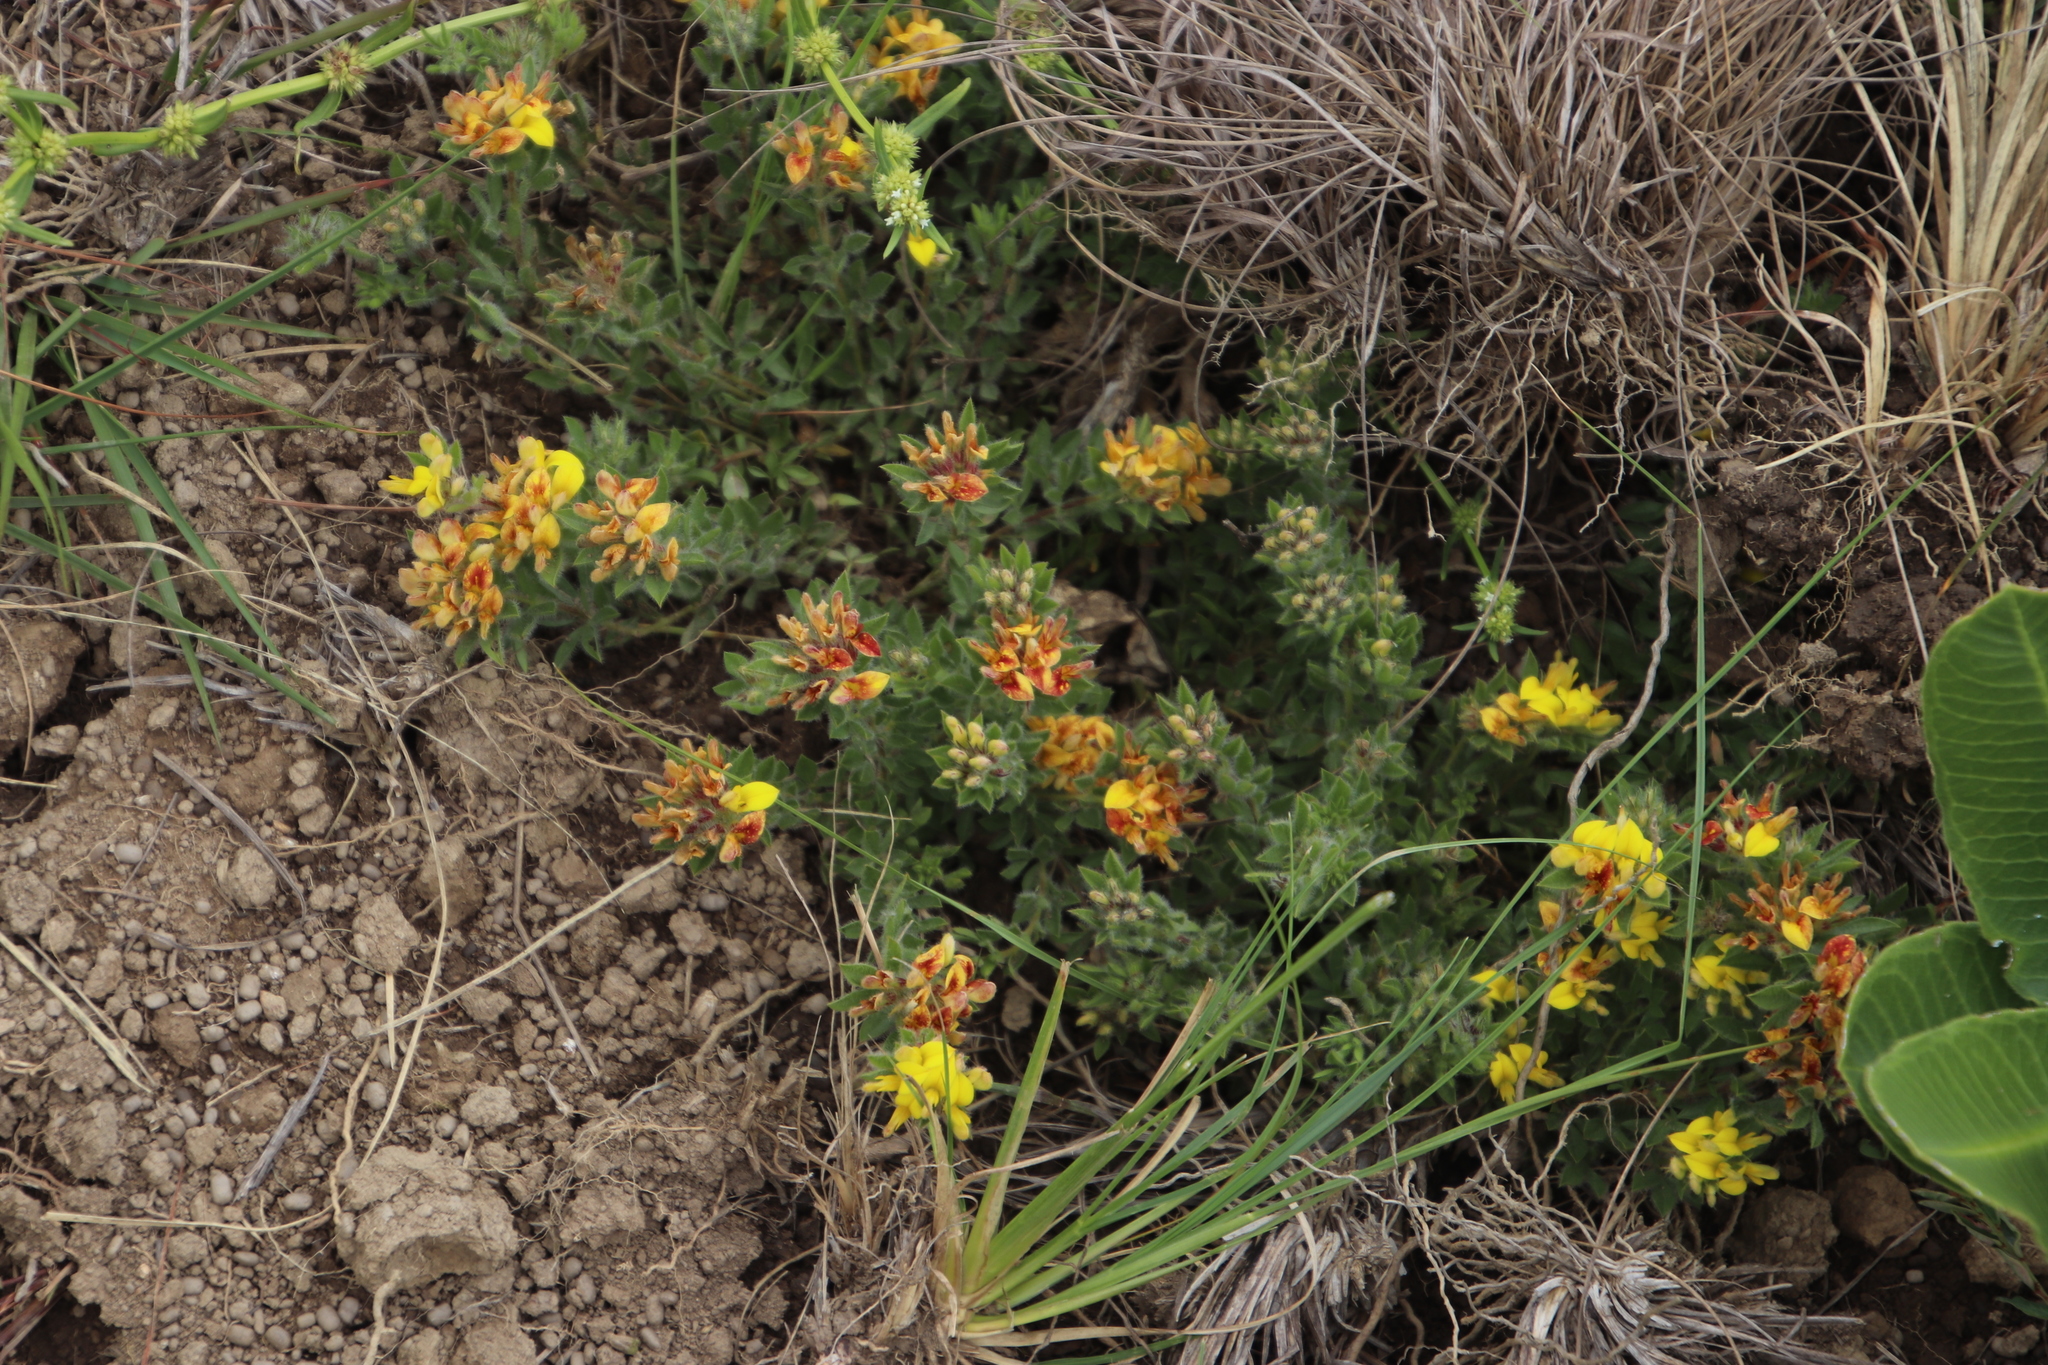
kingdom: Plantae
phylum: Tracheophyta
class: Magnoliopsida
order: Fabales
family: Fabaceae
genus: Leobordea
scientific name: Leobordea eriantha
